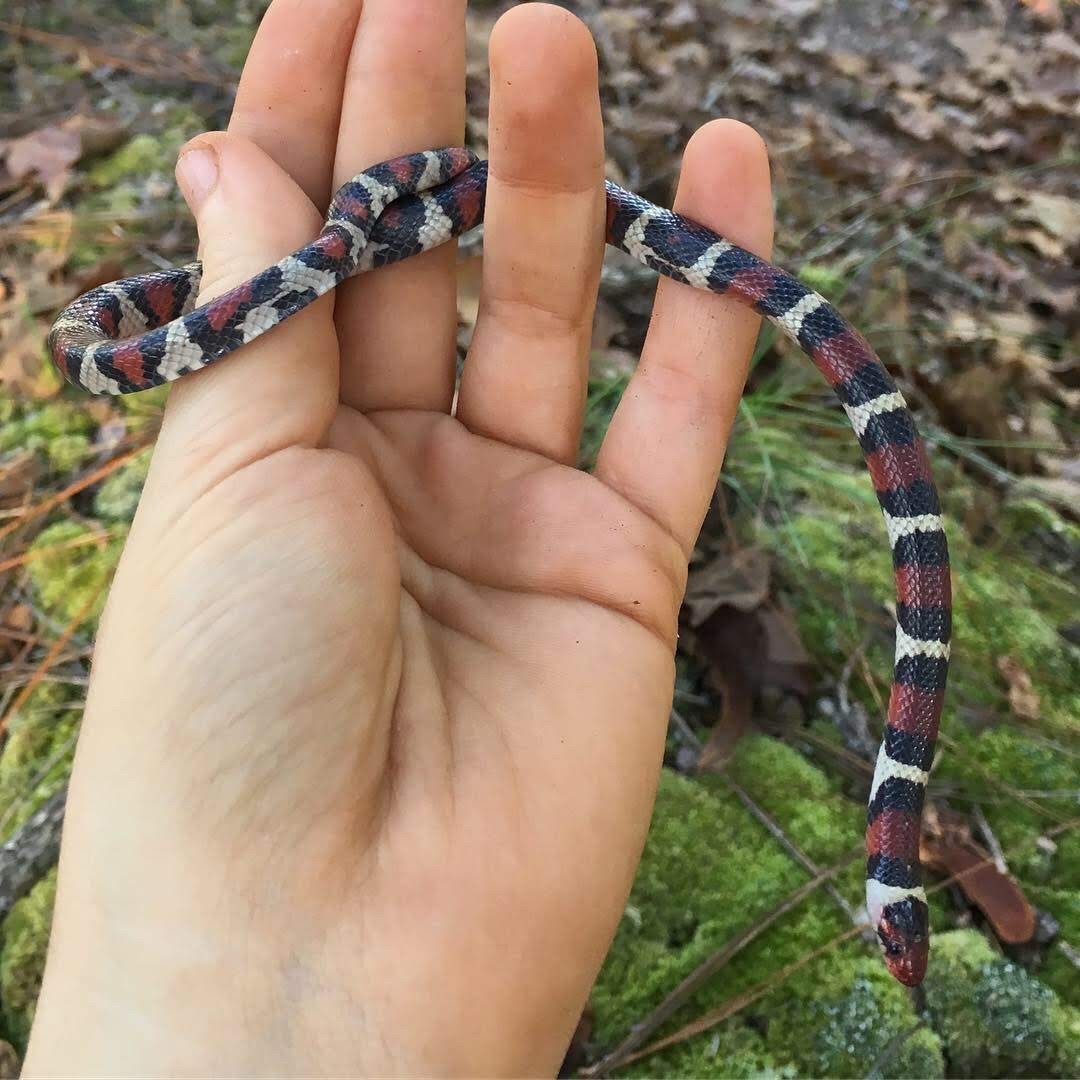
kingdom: Animalia
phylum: Chordata
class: Squamata
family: Colubridae
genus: Lampropeltis
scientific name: Lampropeltis elapsoides
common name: Scarlet kingsnake
